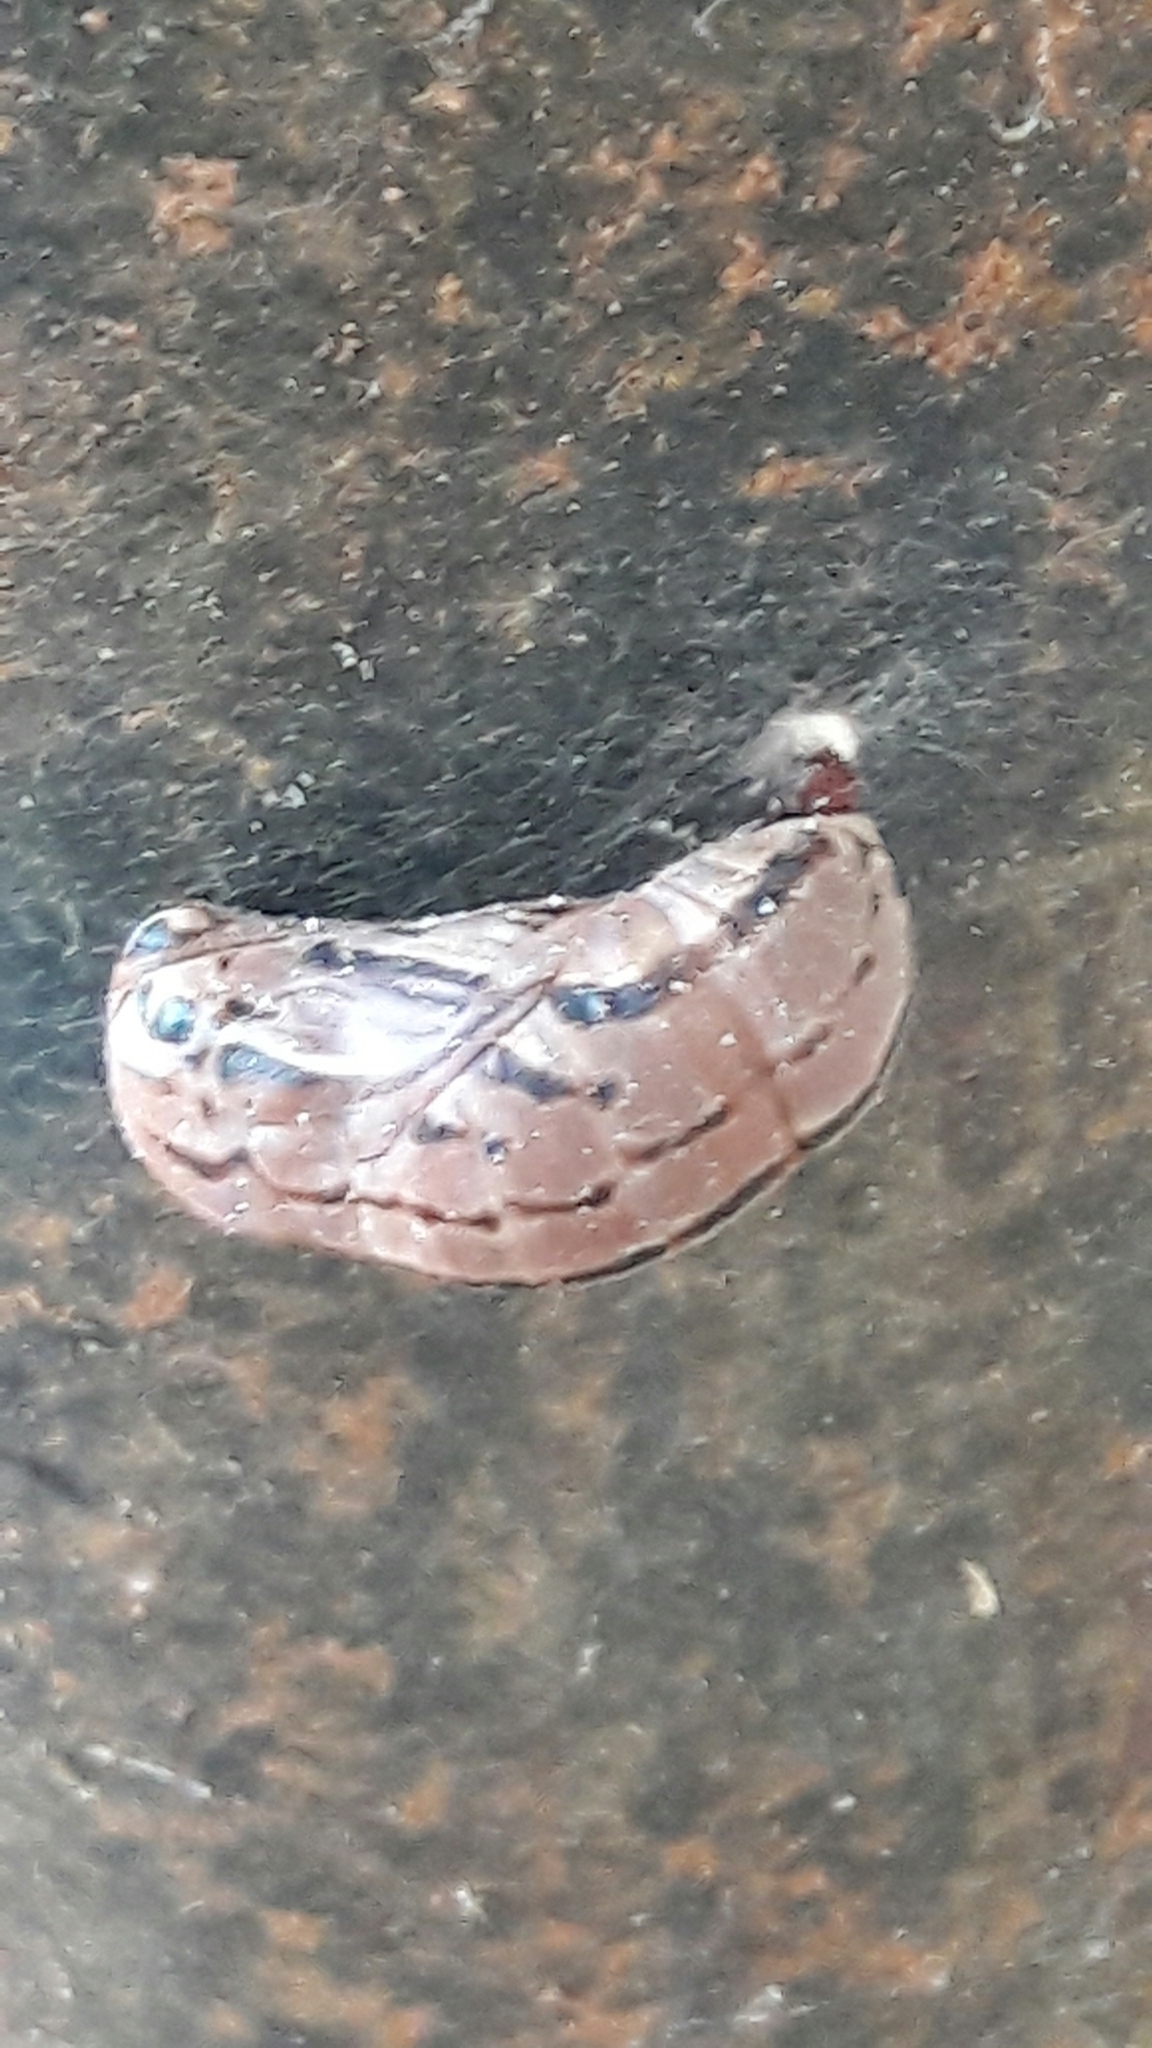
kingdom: Animalia
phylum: Arthropoda
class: Insecta
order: Lepidoptera
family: Nymphalidae
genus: Brassolis
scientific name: Brassolis sophorae
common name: Coconut caterpillar
